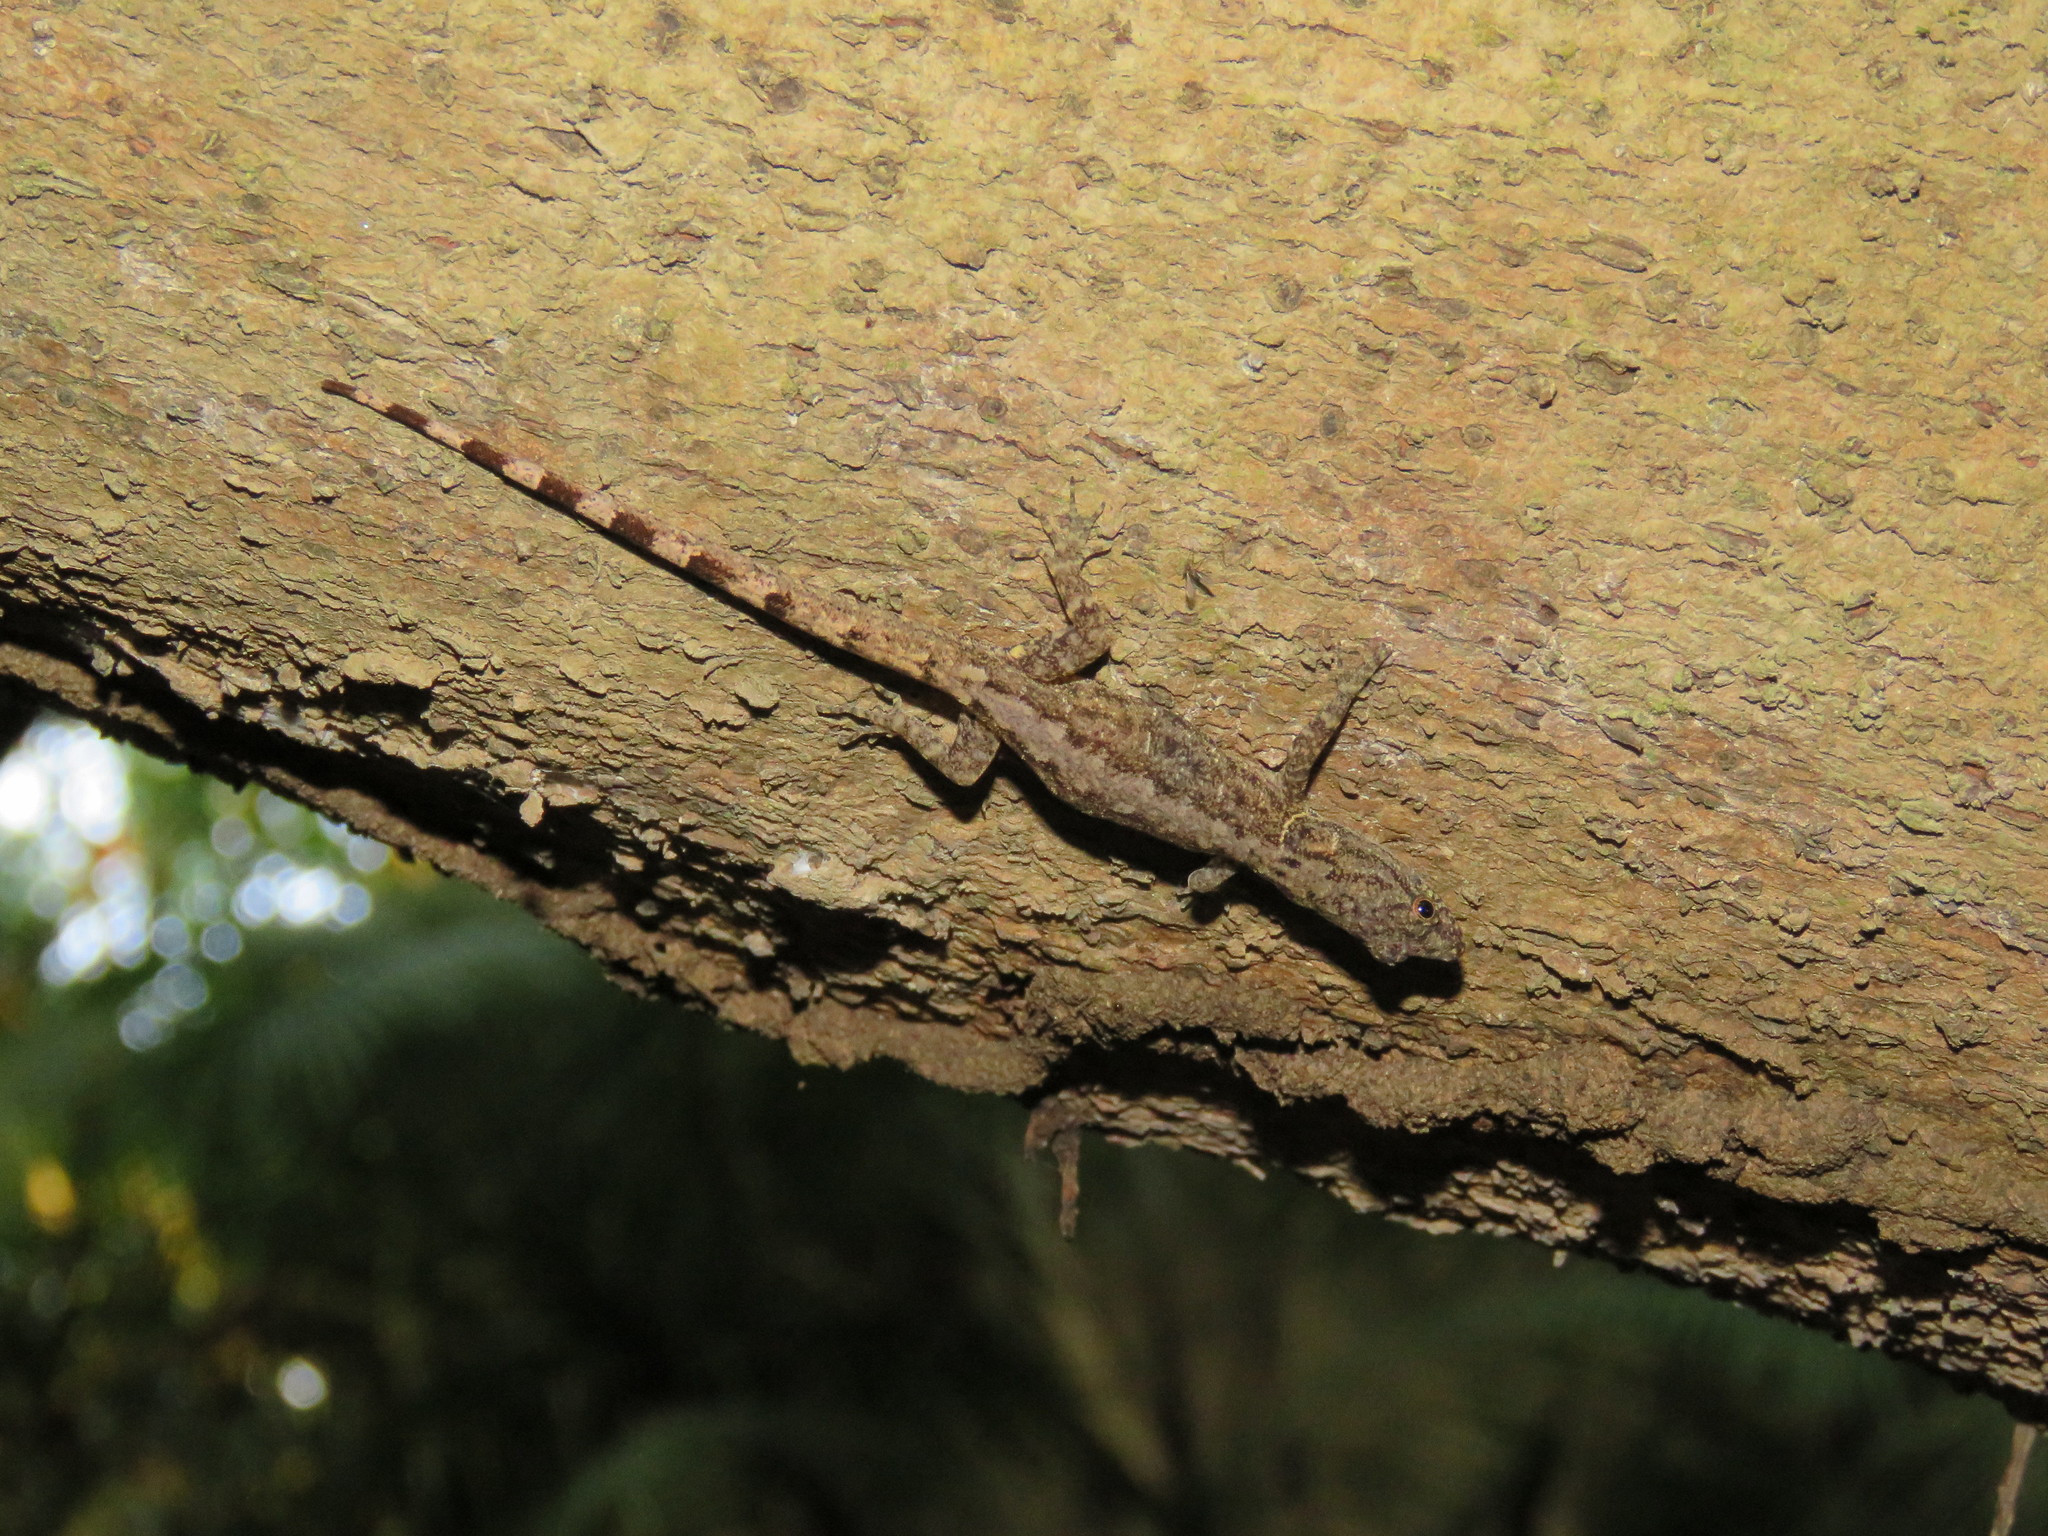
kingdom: Animalia
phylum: Chordata
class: Squamata
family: Sphaerodactylidae
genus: Gonatodes
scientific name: Gonatodes humeralis
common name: South american clawed gecko
